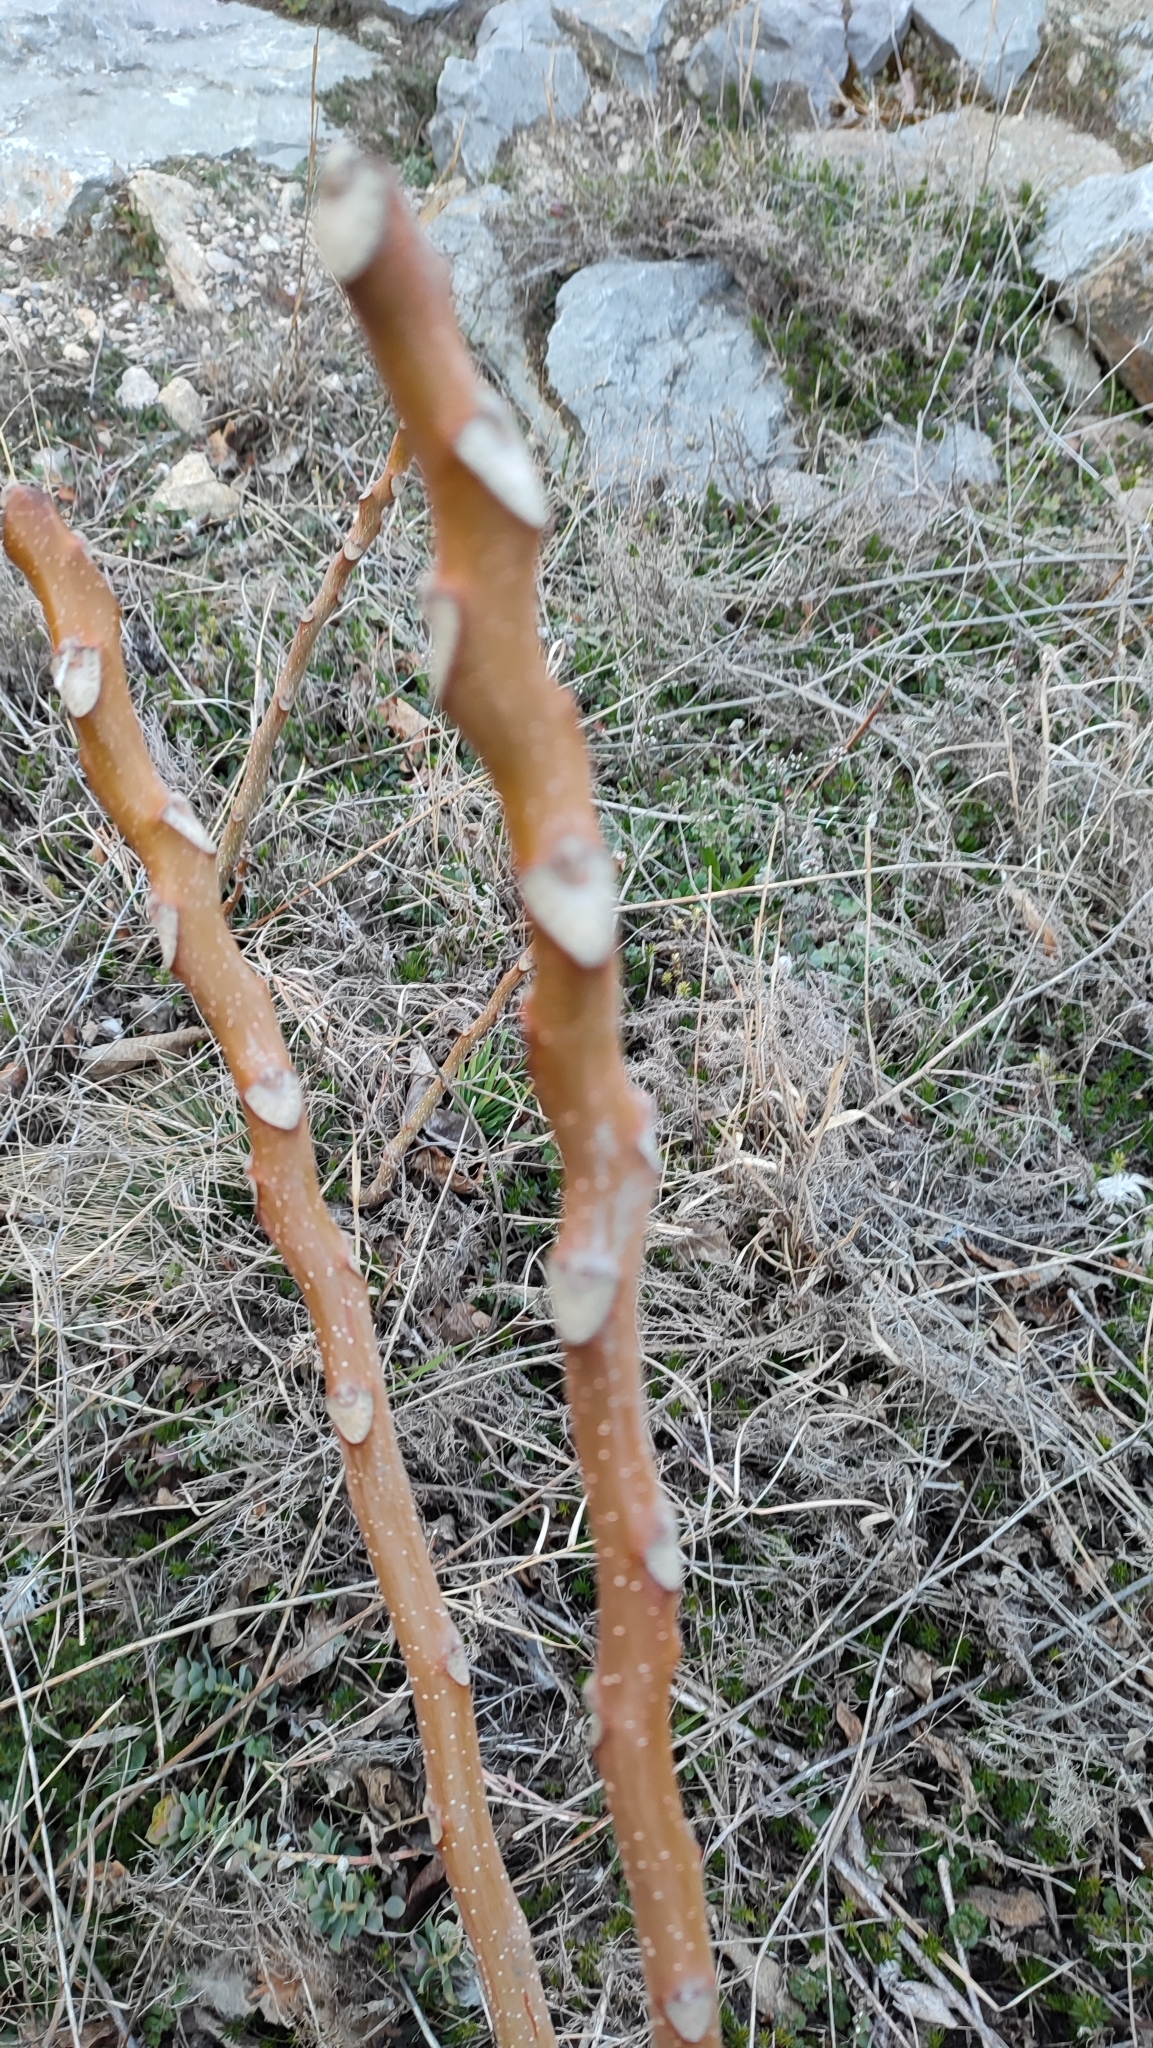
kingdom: Plantae
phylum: Tracheophyta
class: Magnoliopsida
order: Sapindales
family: Simaroubaceae
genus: Ailanthus
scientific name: Ailanthus altissima
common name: Tree-of-heaven
